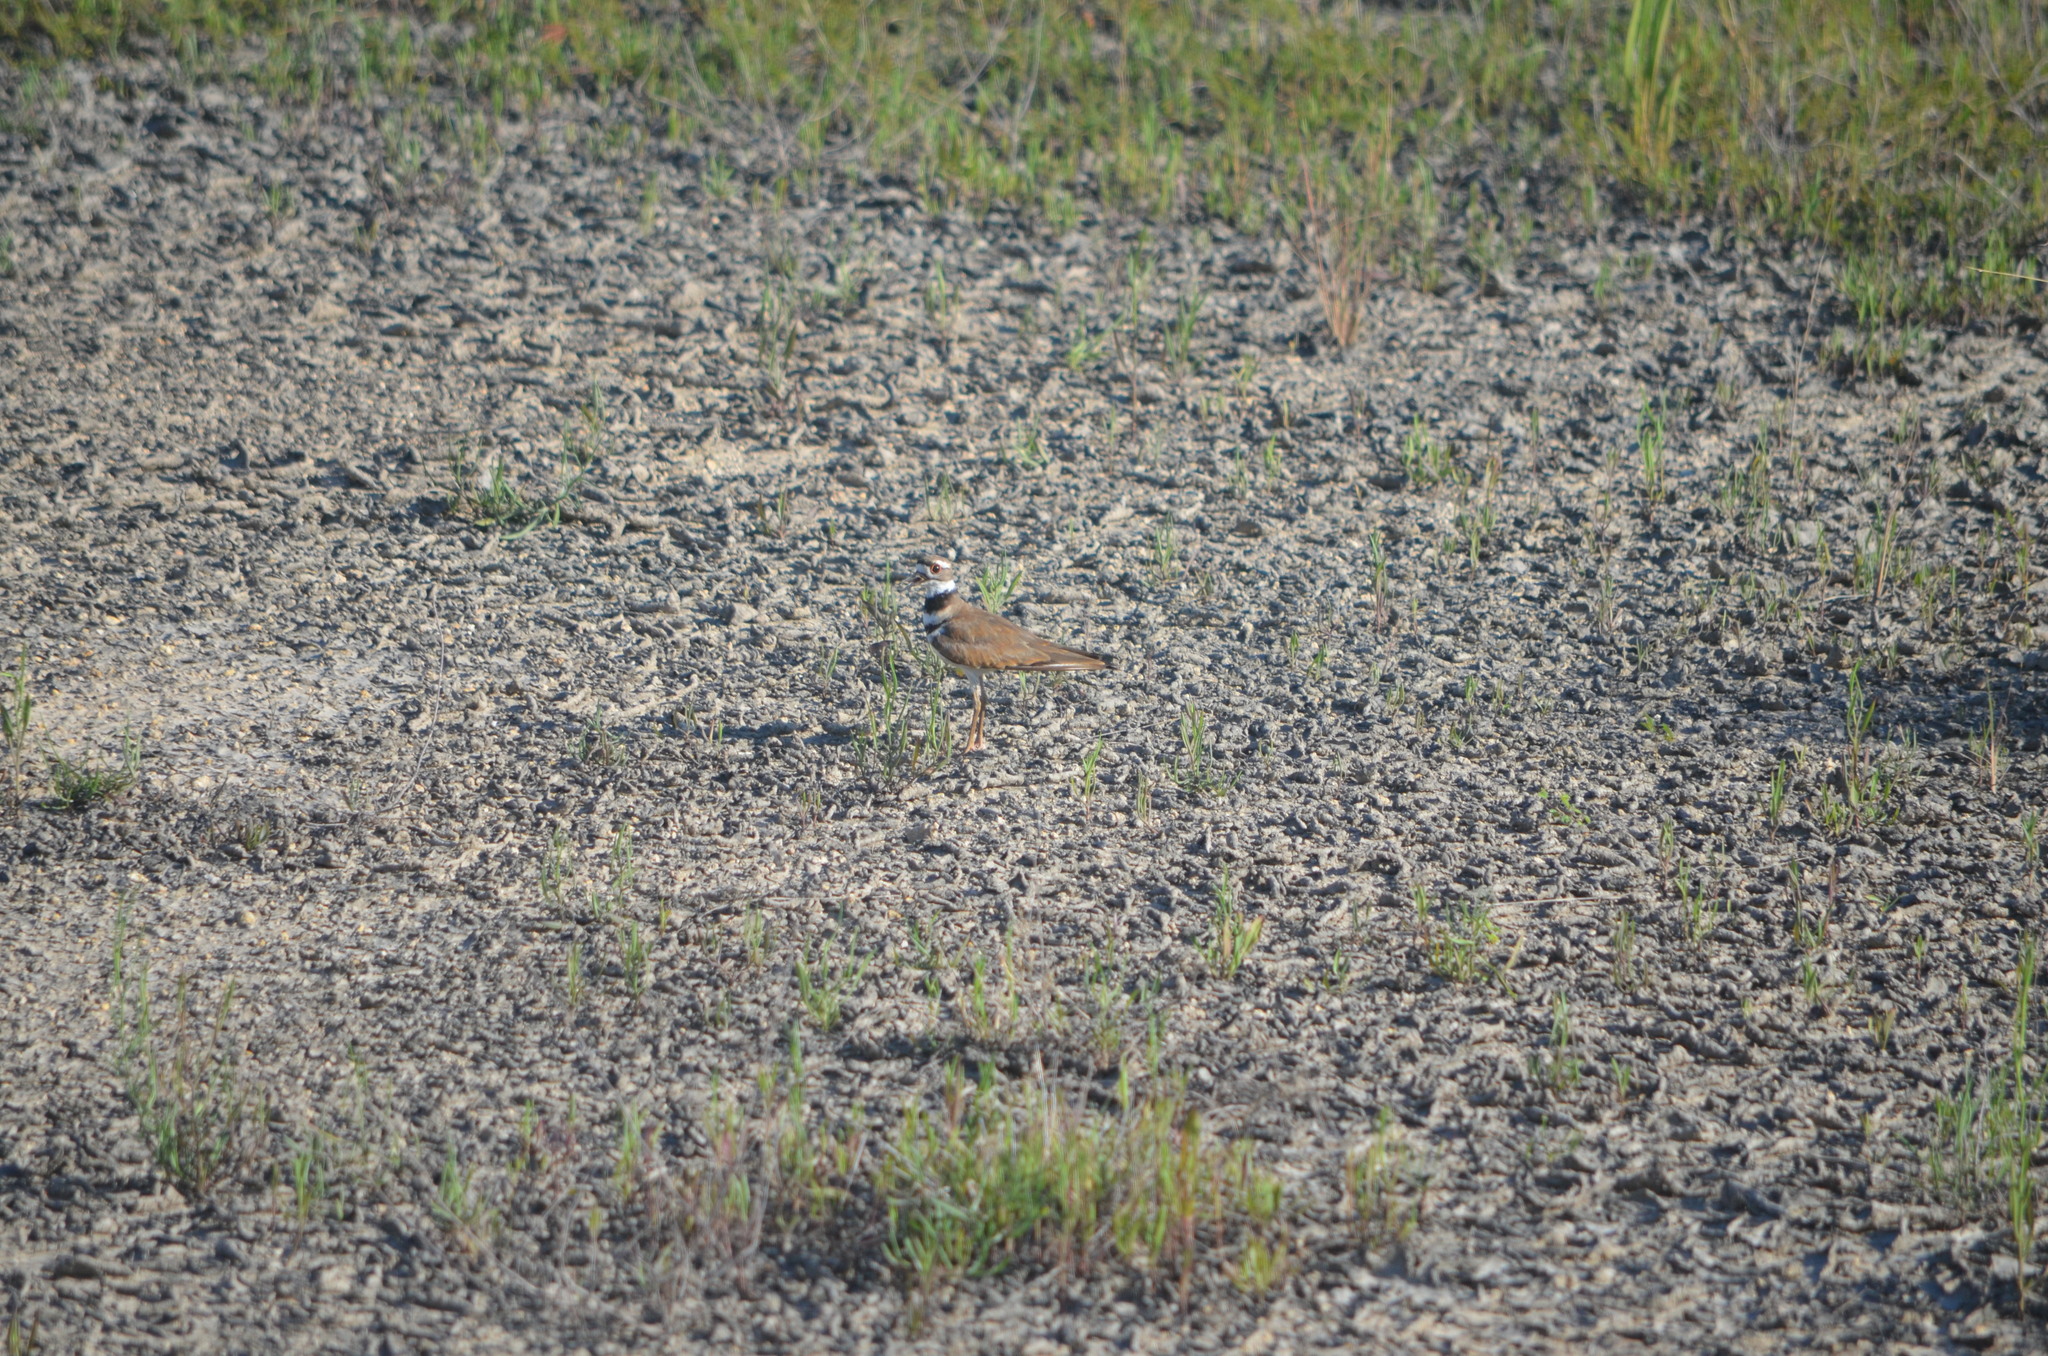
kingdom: Animalia
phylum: Chordata
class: Aves
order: Charadriiformes
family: Charadriidae
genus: Charadrius
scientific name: Charadrius vociferus
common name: Killdeer
